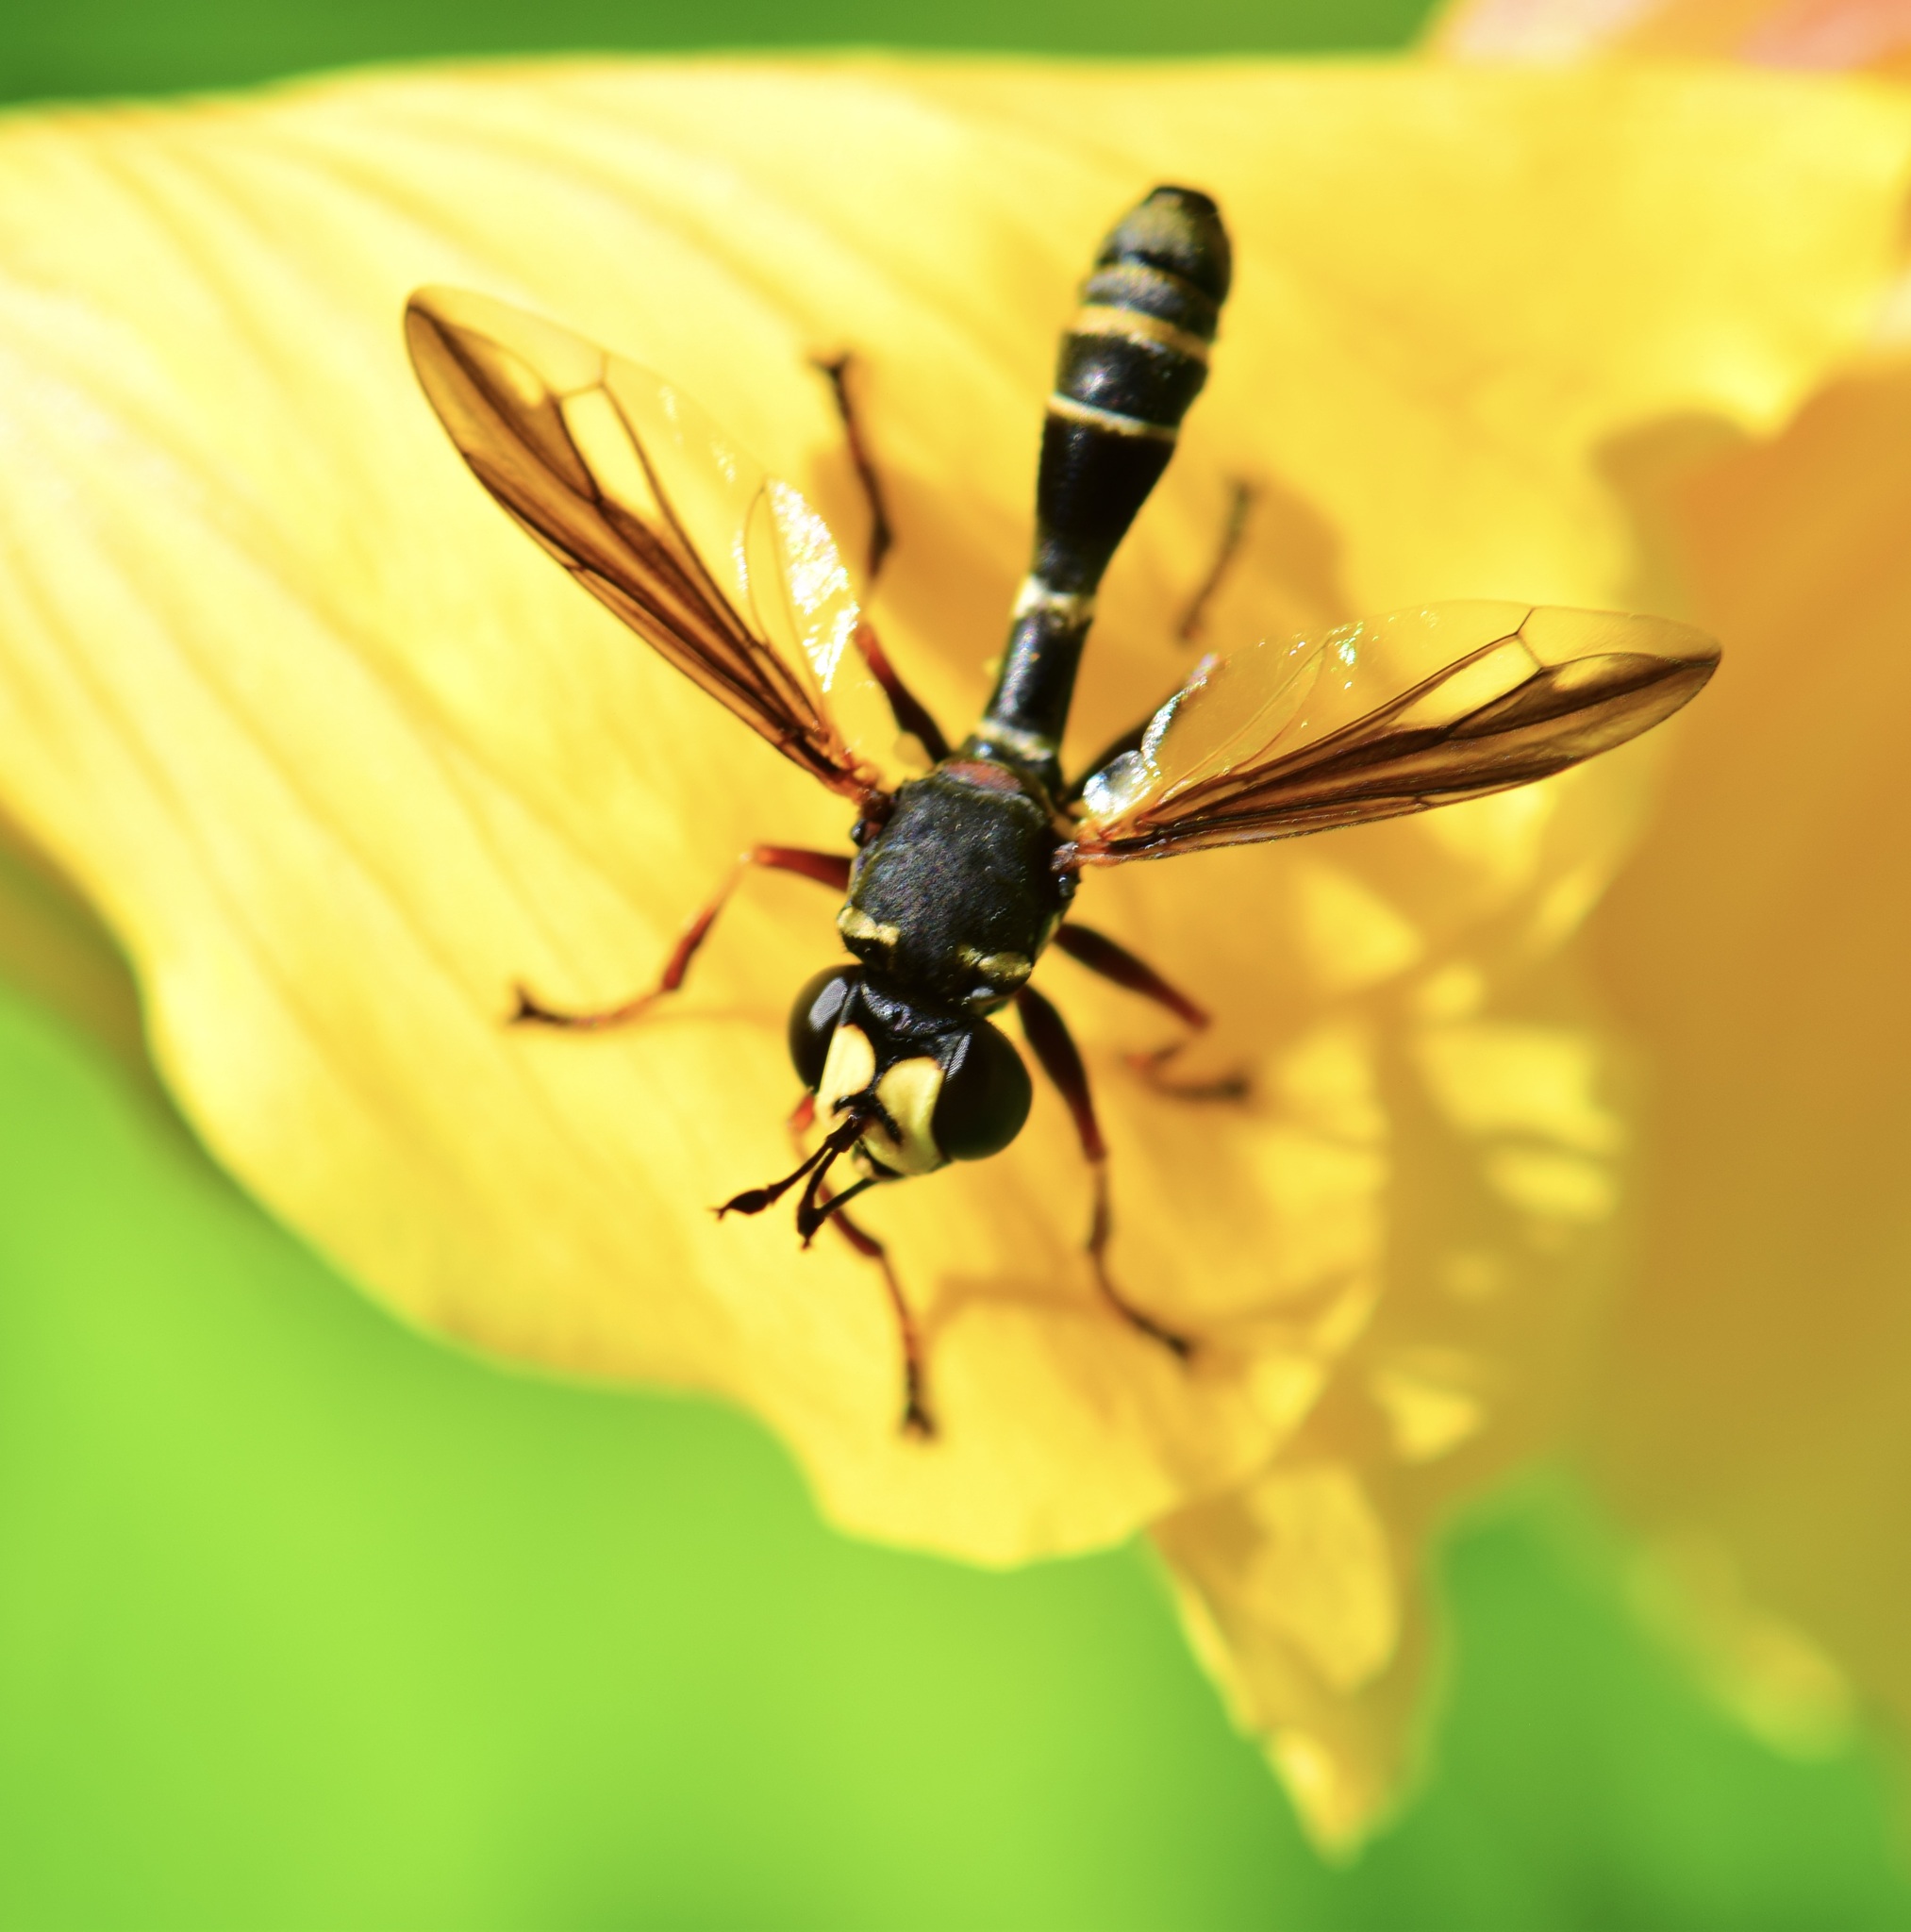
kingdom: Animalia
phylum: Arthropoda
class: Insecta
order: Diptera
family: Conopidae
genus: Physocephala
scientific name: Physocephala marginata
